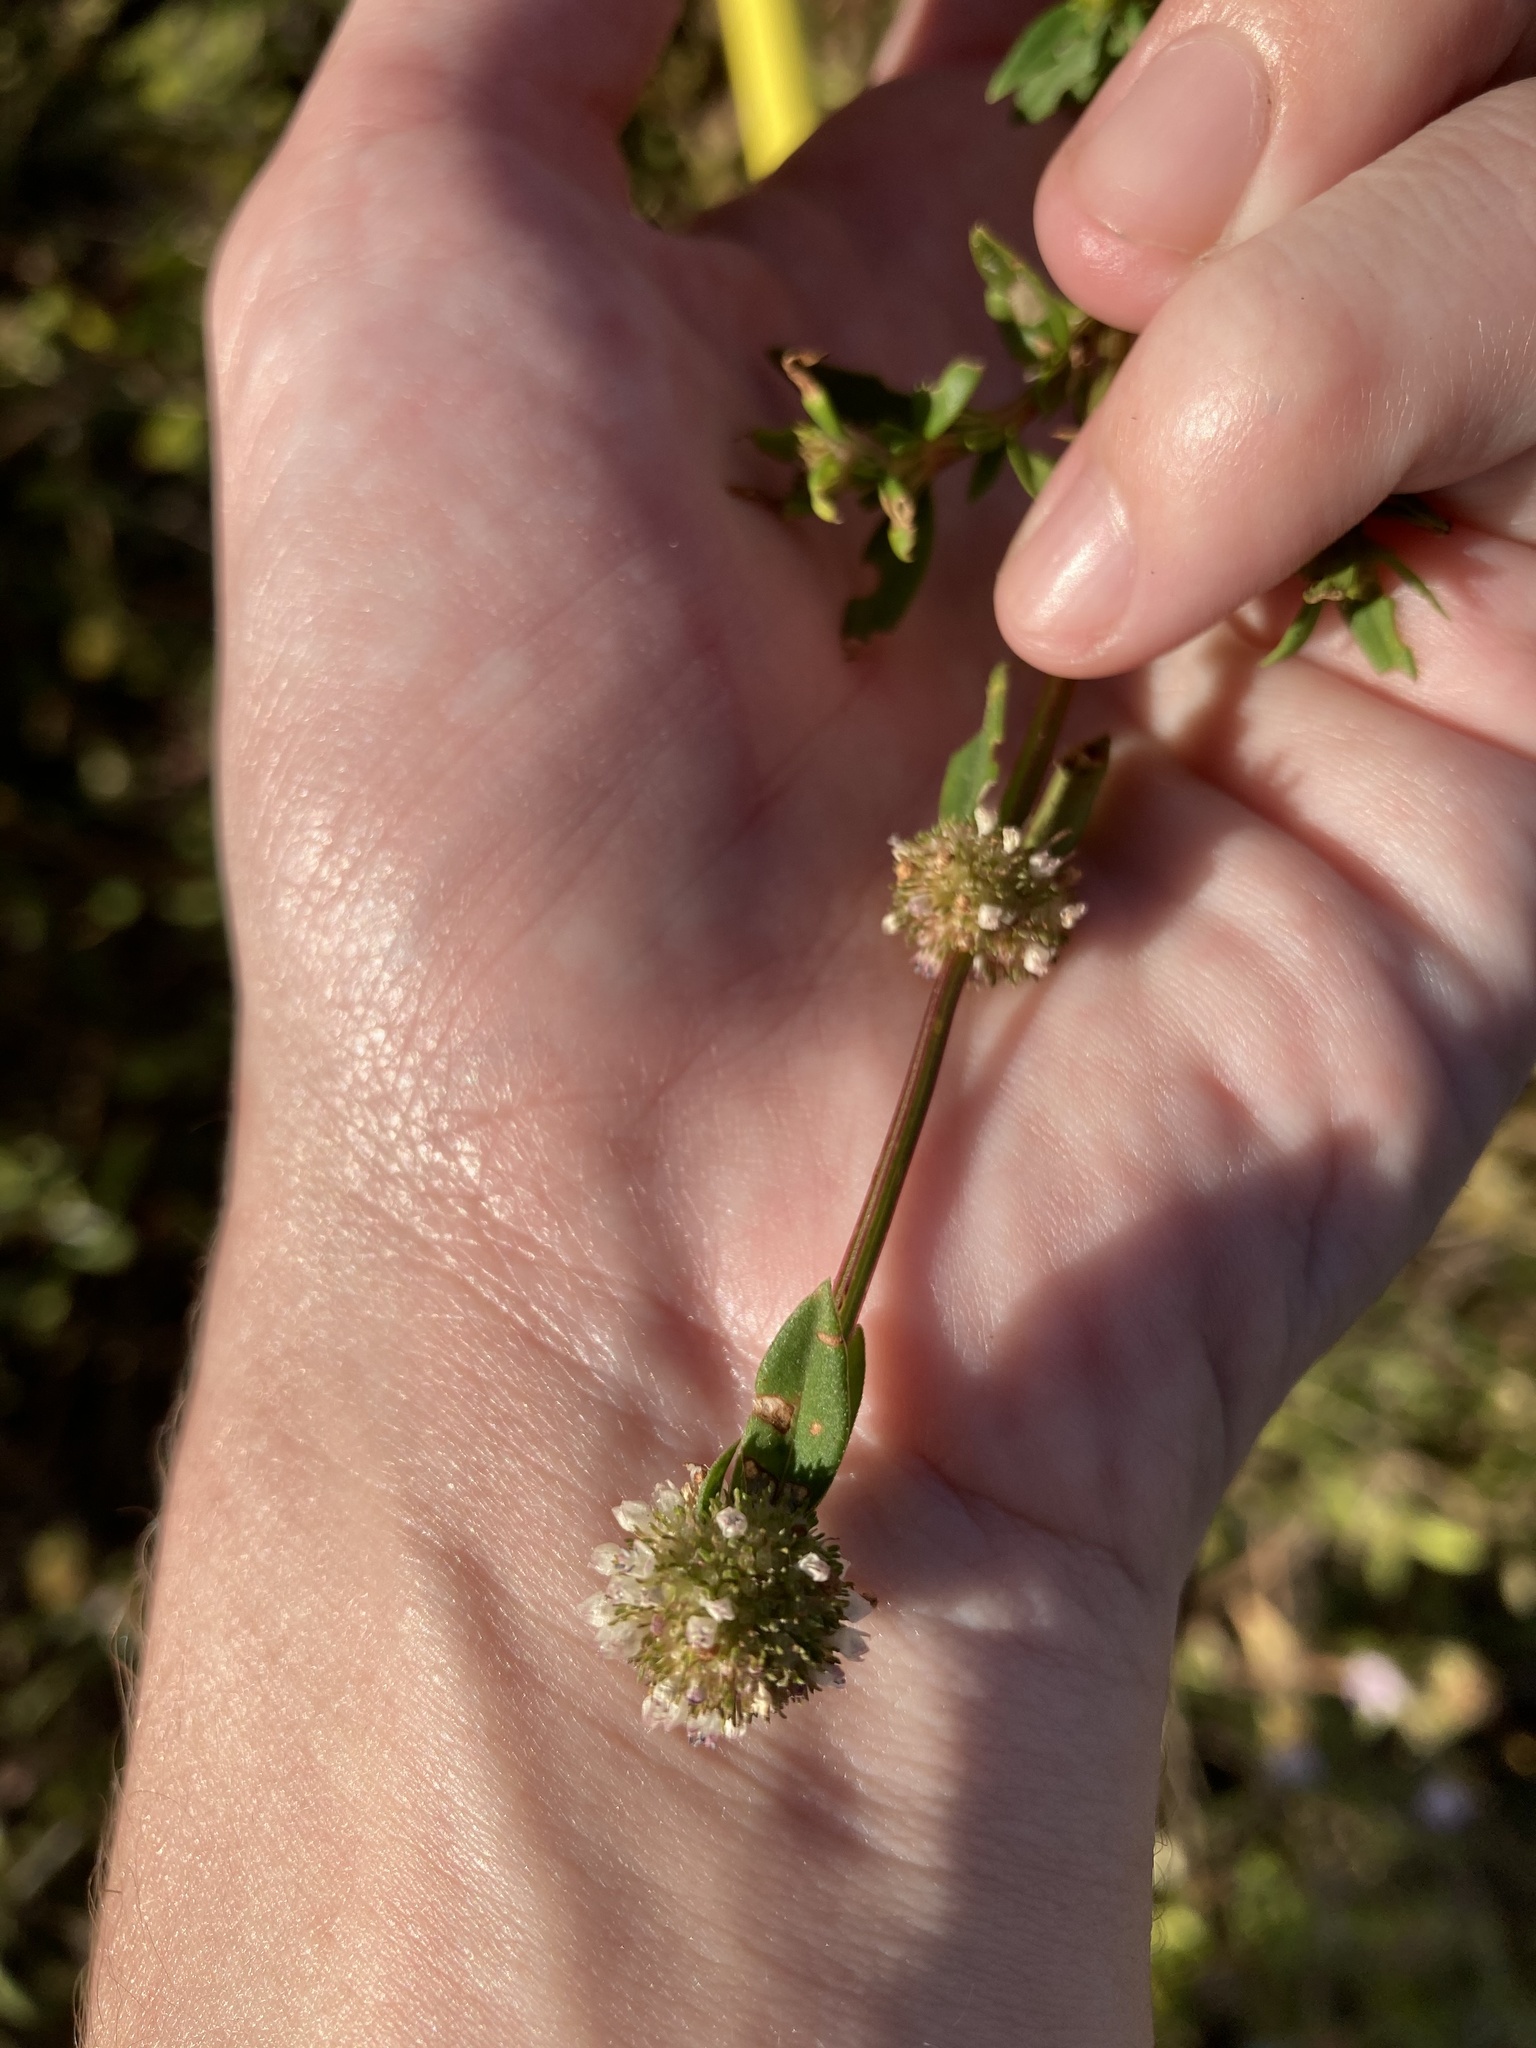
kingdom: Plantae
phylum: Tracheophyta
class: Magnoliopsida
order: Gentianales
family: Rubiaceae
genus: Spermacoce
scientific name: Spermacoce verticillata
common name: Shrubby false buttonweed
